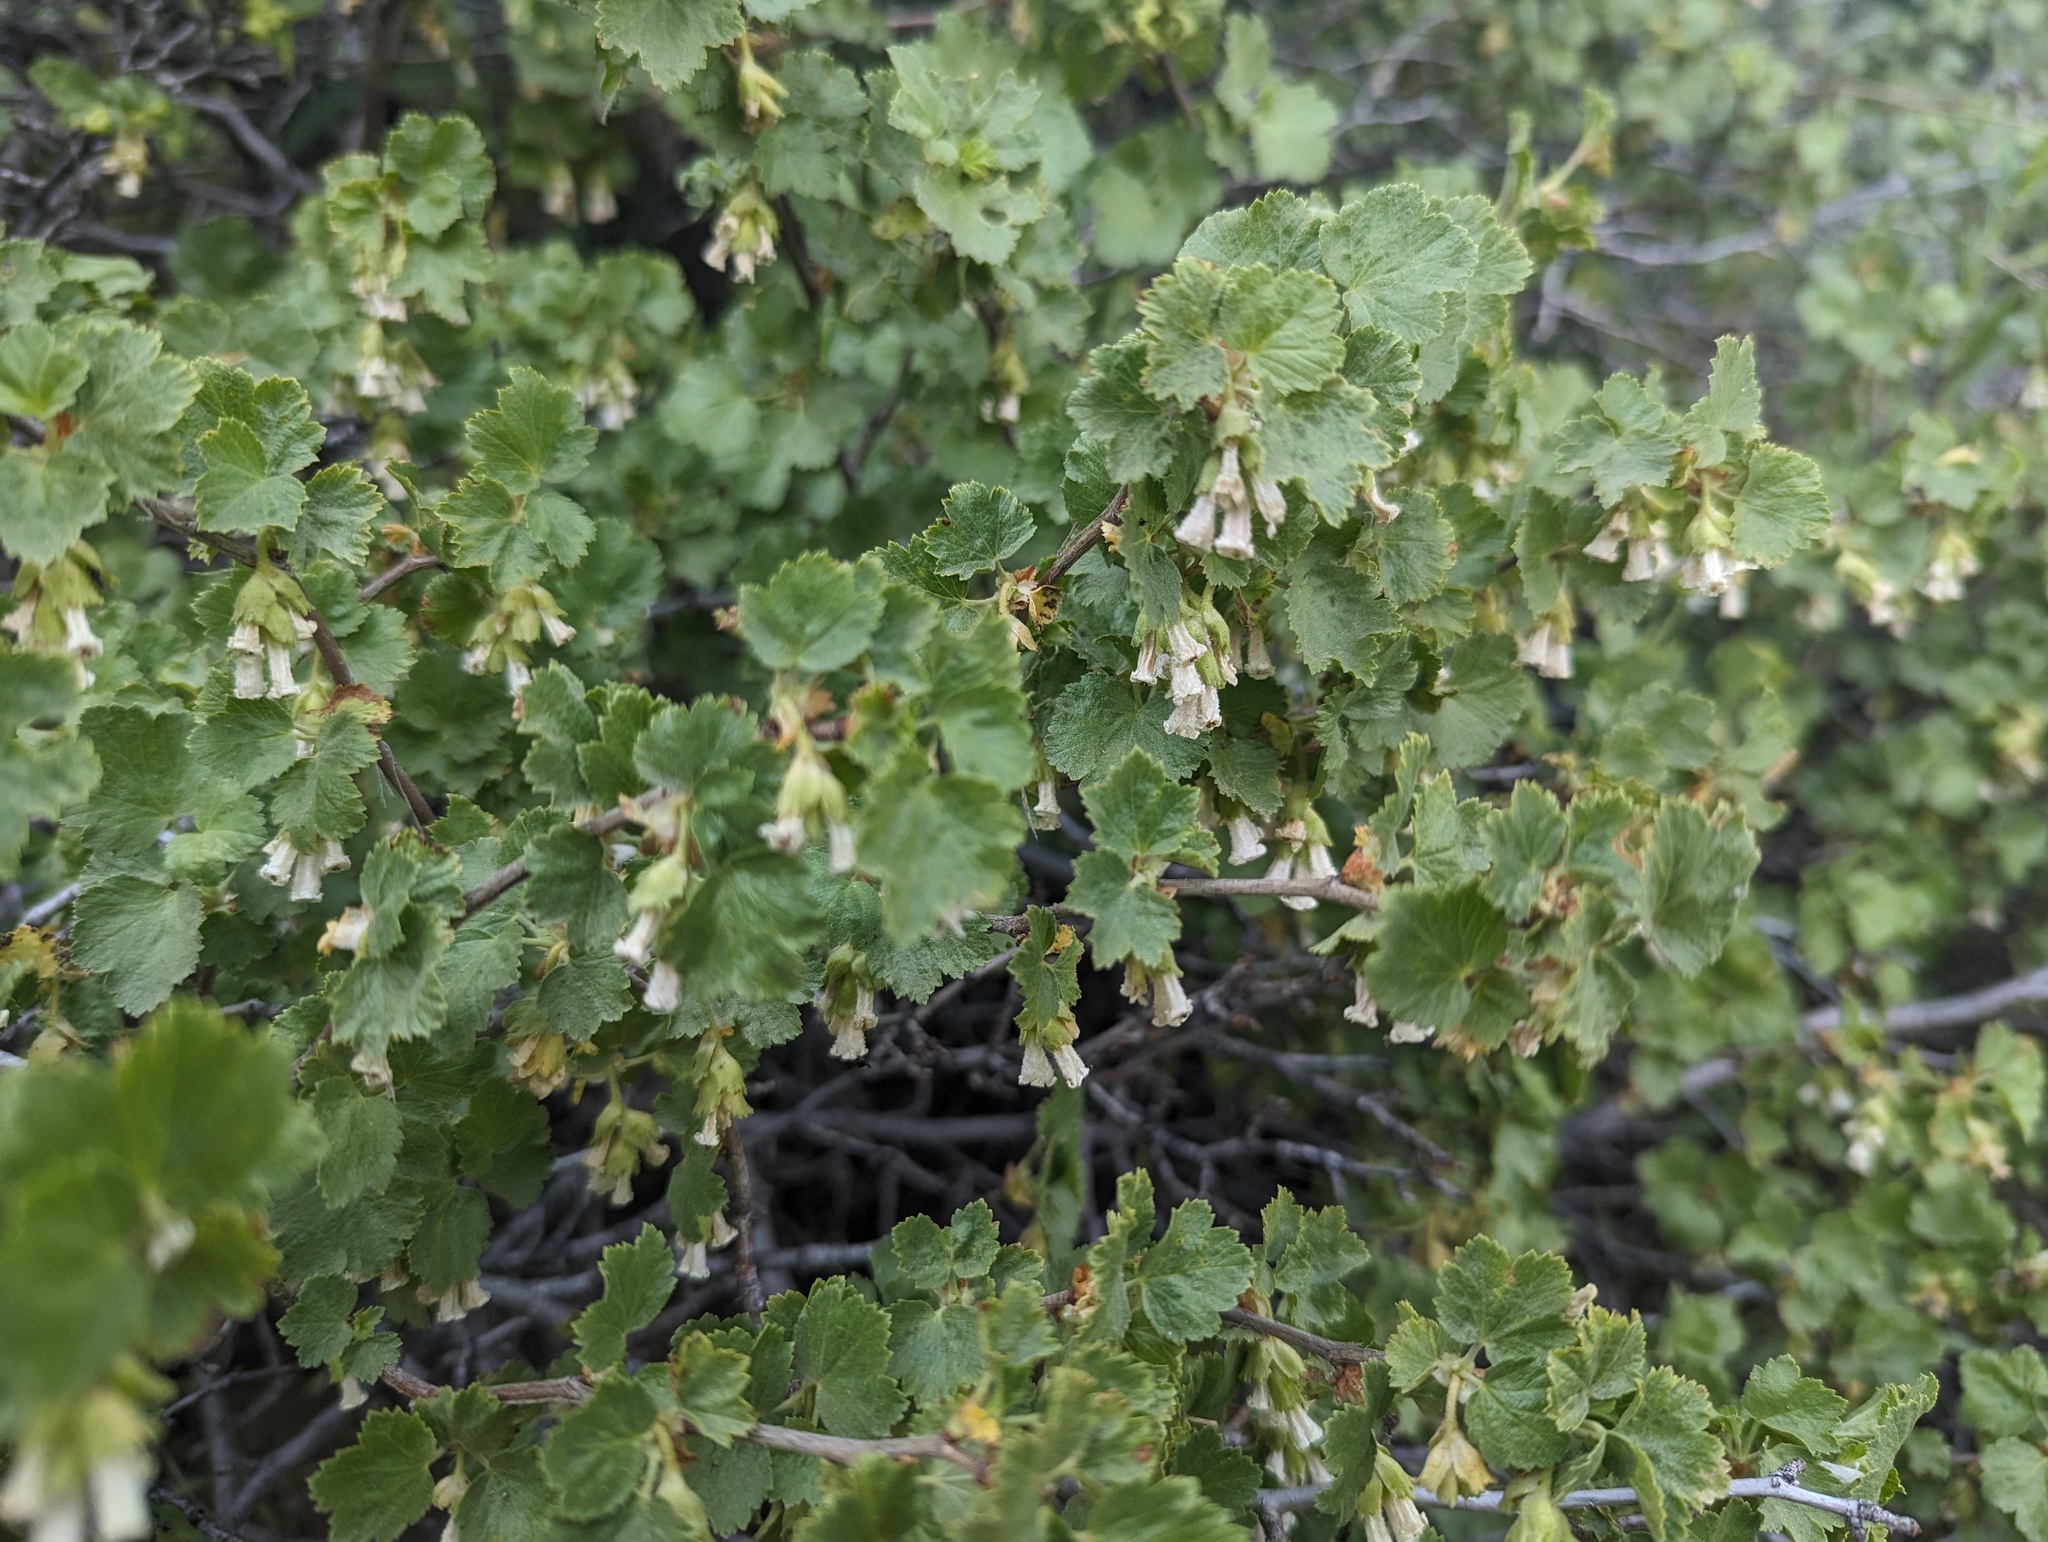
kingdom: Plantae
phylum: Tracheophyta
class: Magnoliopsida
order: Saxifragales
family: Grossulariaceae
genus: Ribes
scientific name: Ribes cereum
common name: Wax currant
